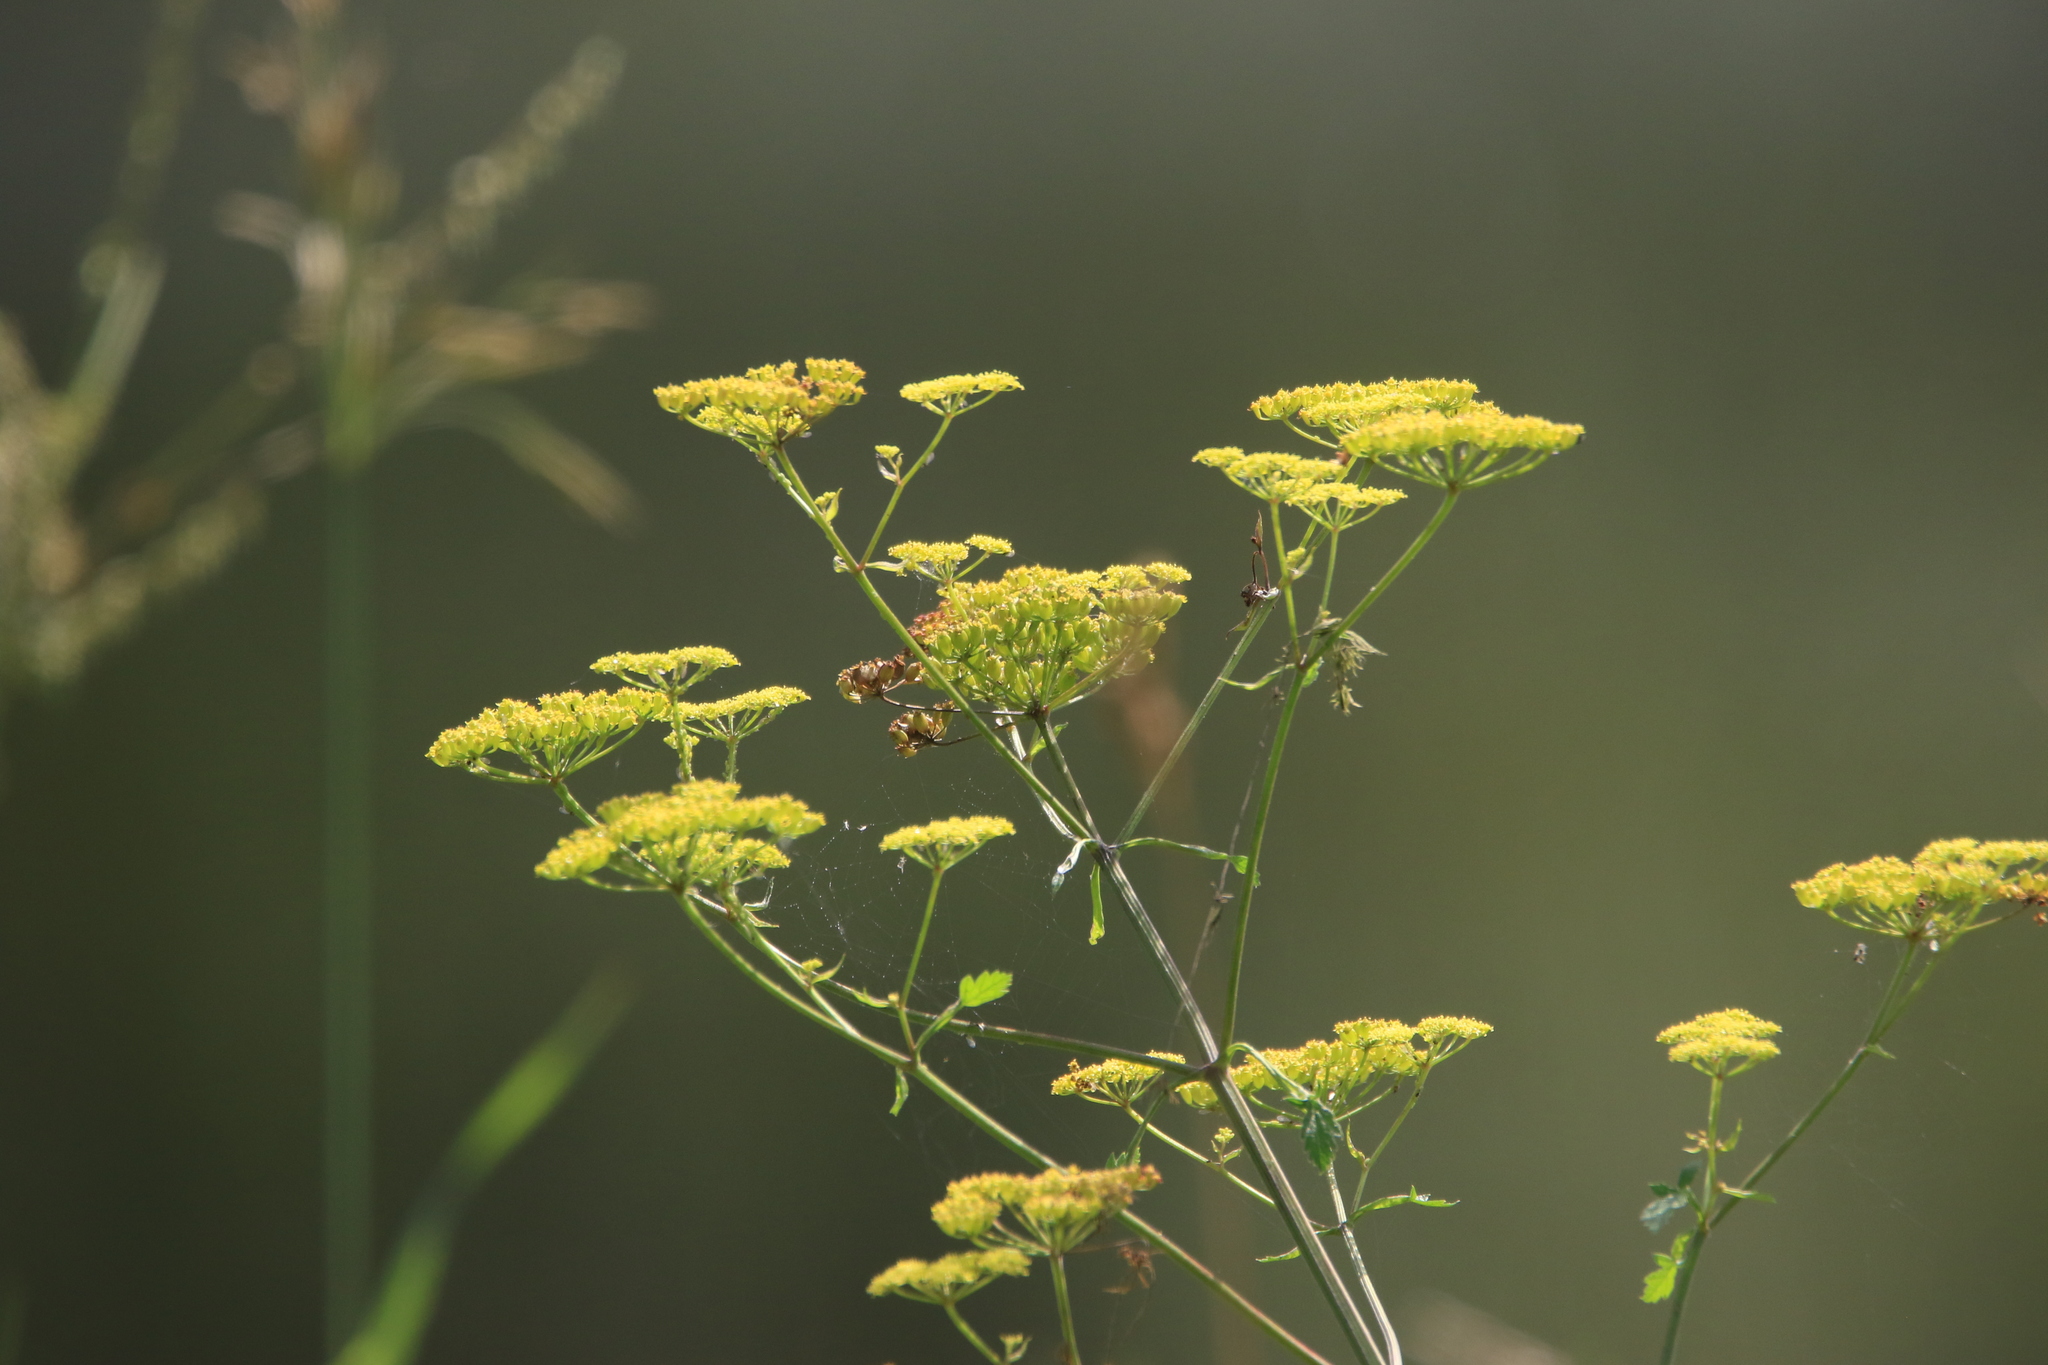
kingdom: Plantae
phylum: Tracheophyta
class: Magnoliopsida
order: Apiales
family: Apiaceae
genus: Pastinaca
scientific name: Pastinaca sativa
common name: Wild parsnip
